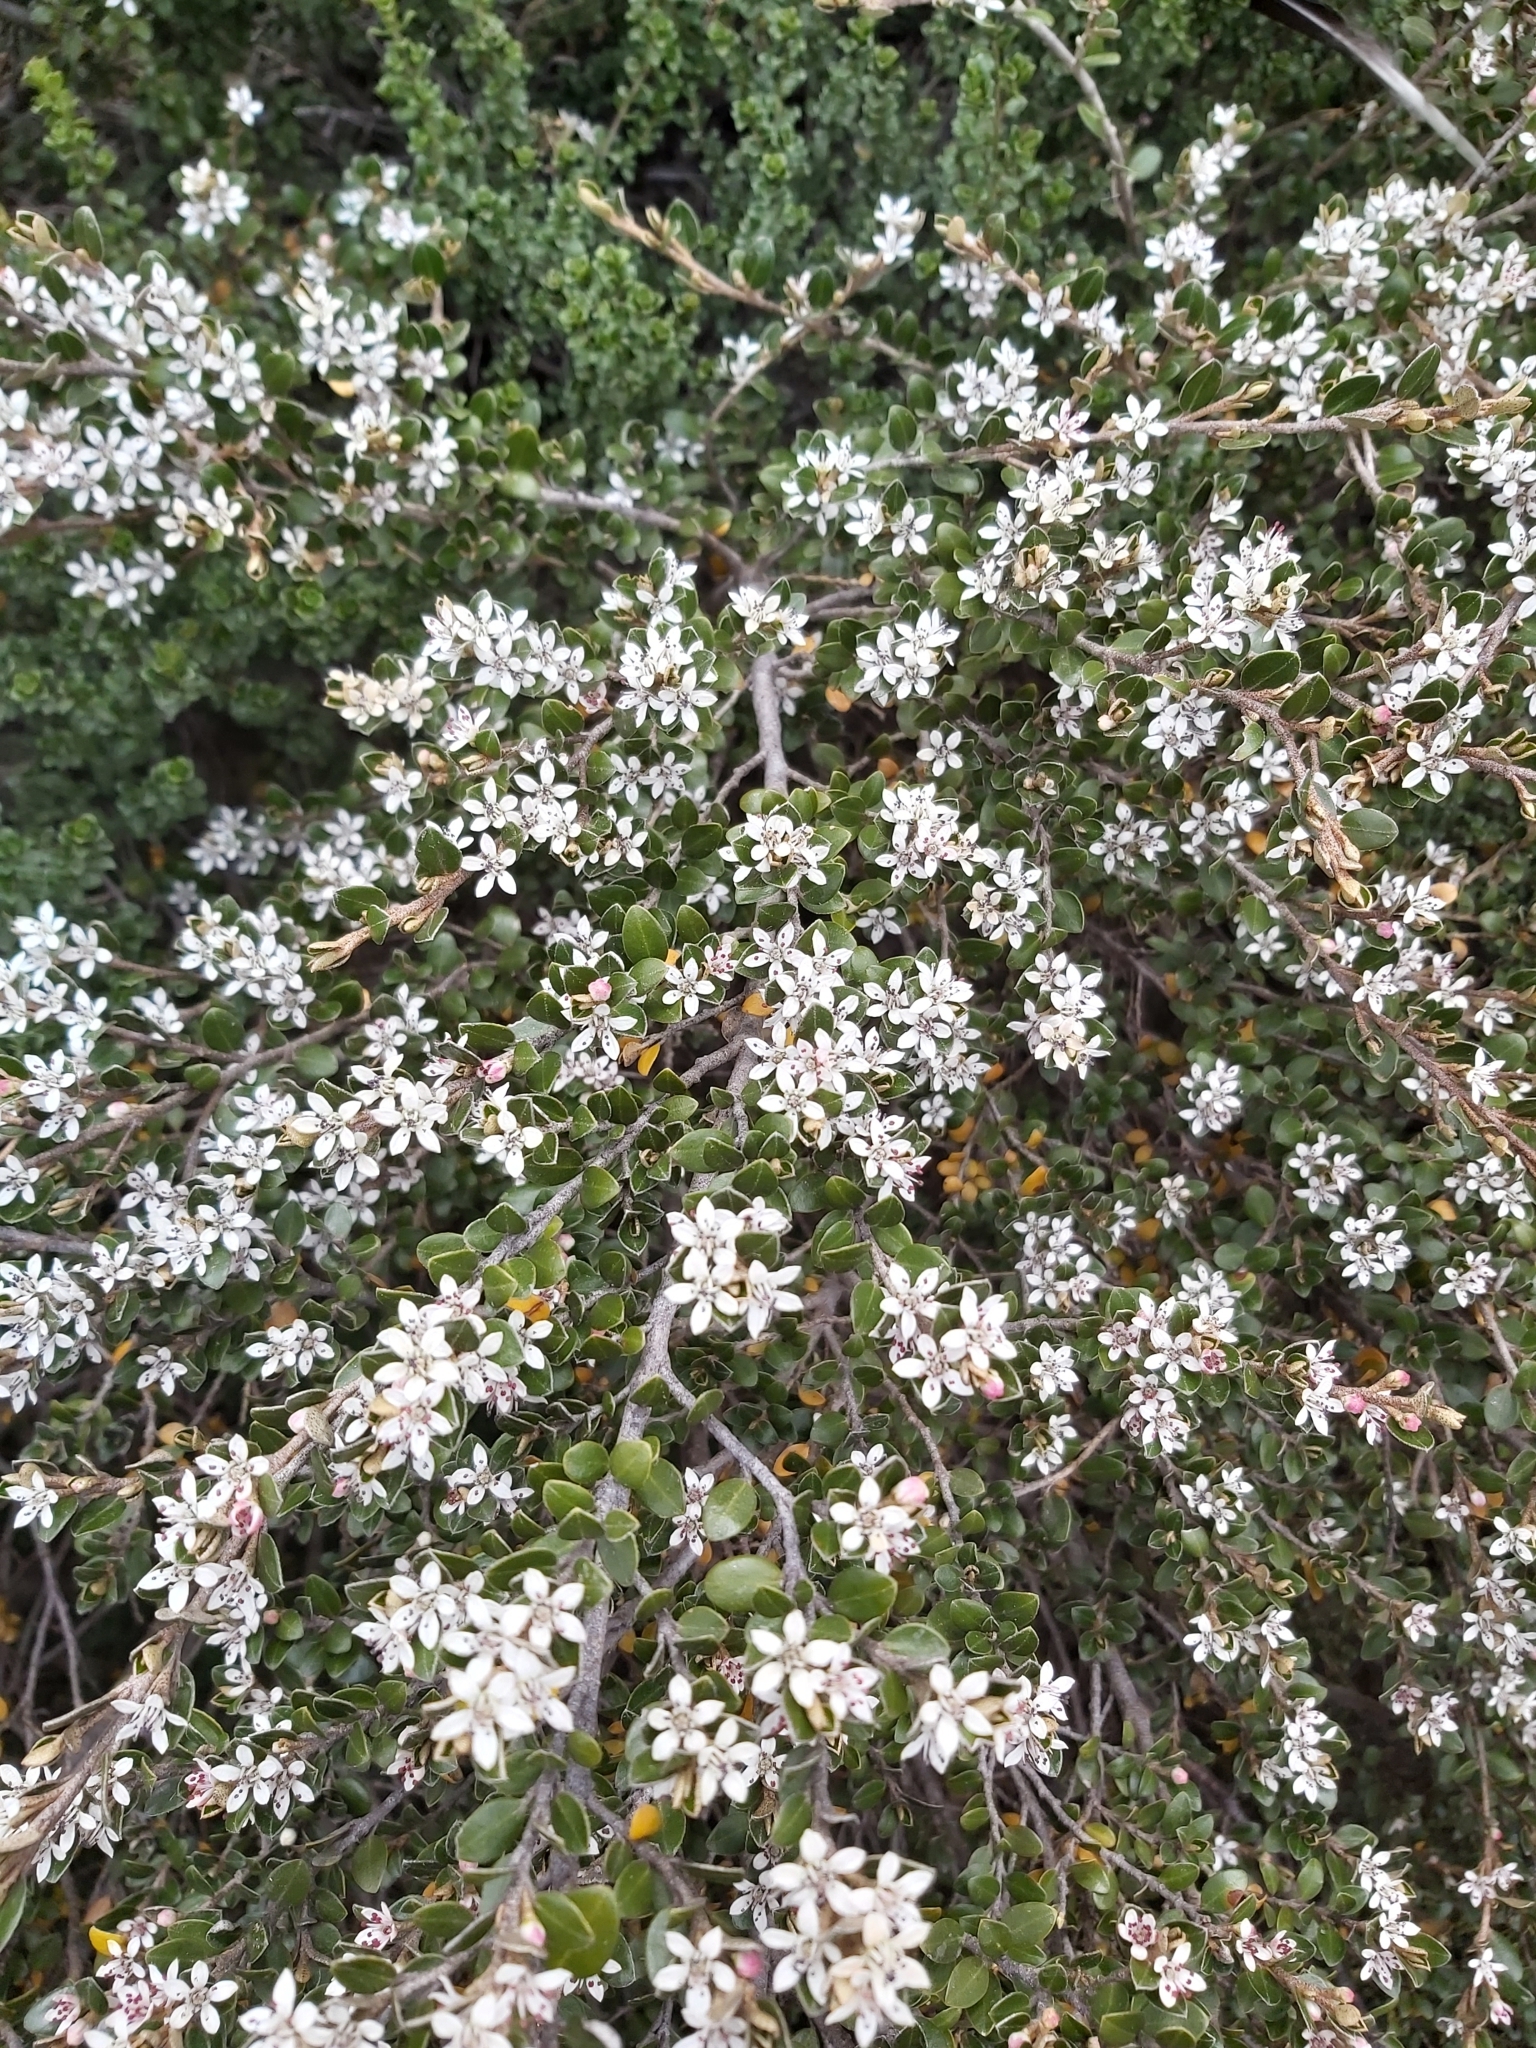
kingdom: Plantae
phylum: Tracheophyta
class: Magnoliopsida
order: Sapindales
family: Rutaceae
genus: Nematolepis
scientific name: Nematolepis ovatifolia
